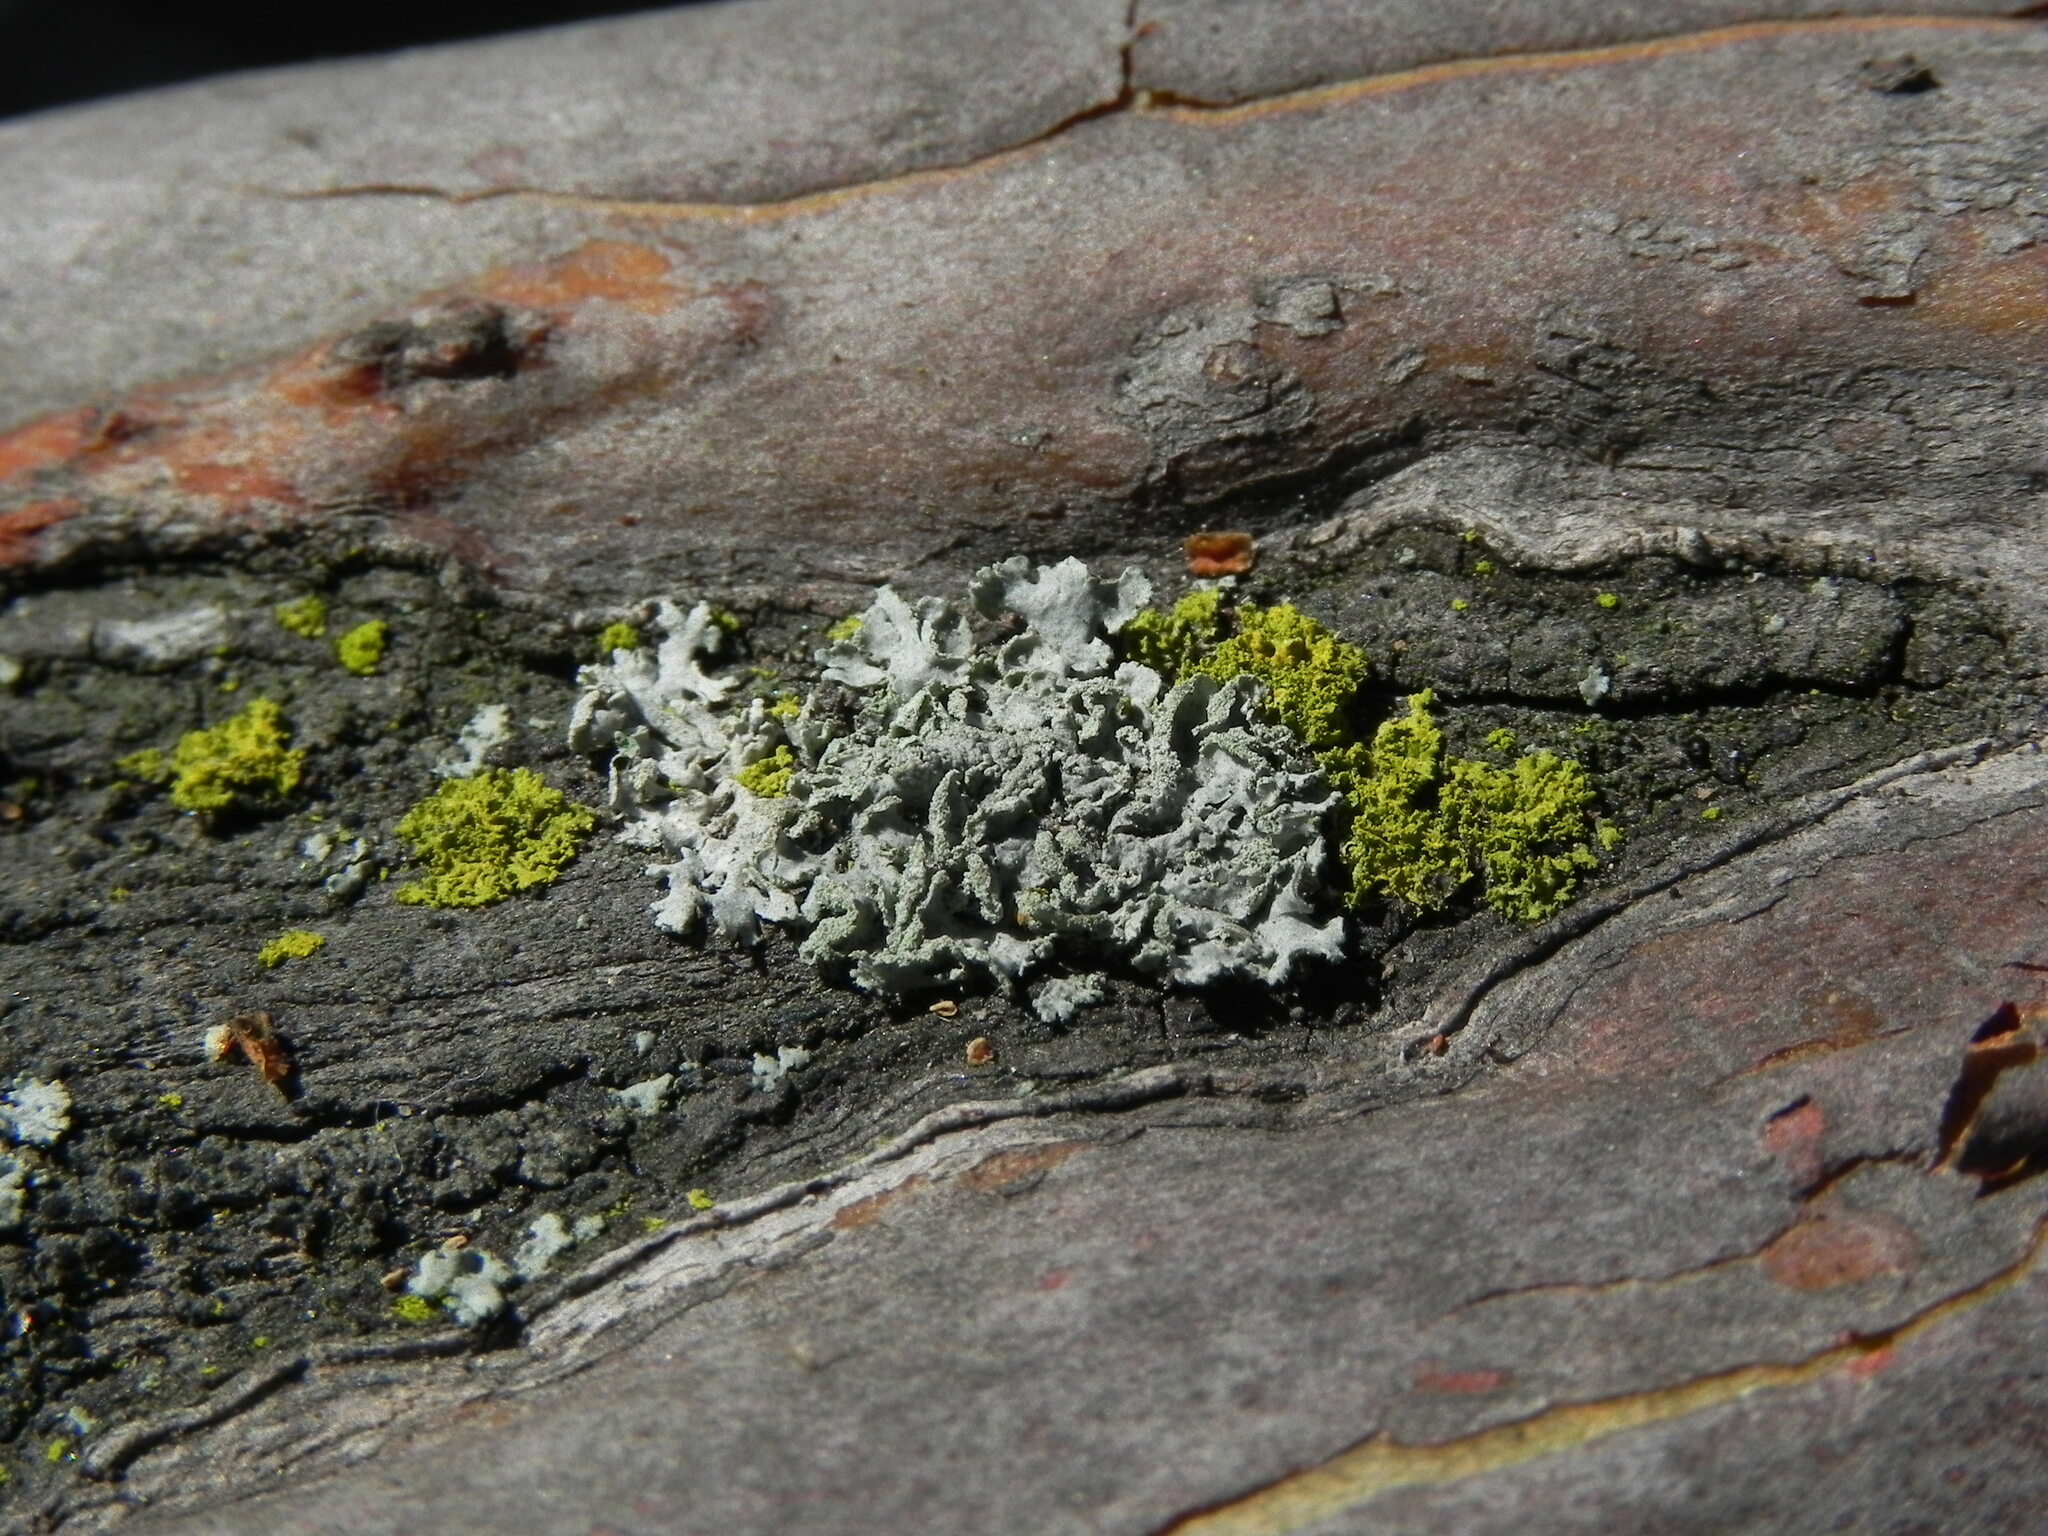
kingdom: Fungi
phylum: Ascomycota
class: Lecanoromycetes
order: Caliciales
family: Physciaceae
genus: Physcia
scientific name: Physcia dubia
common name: Powder-tipped rosette lichen
